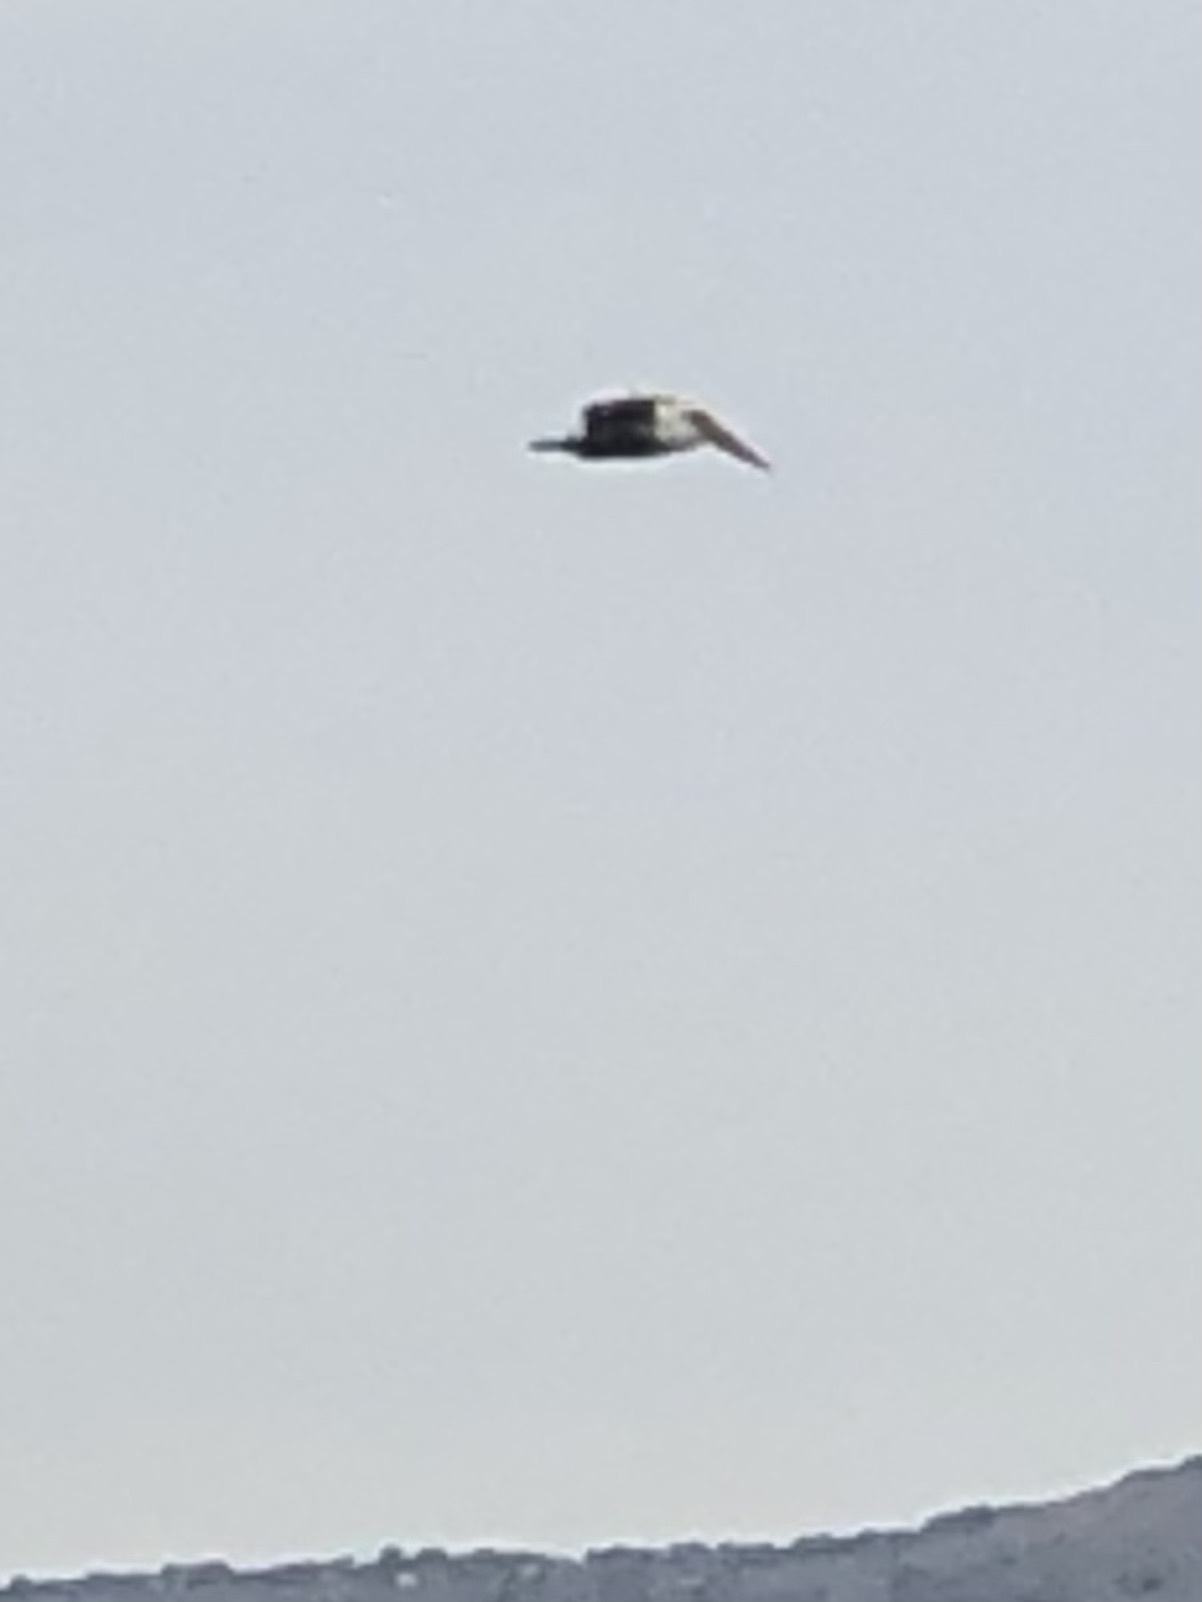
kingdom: Animalia
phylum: Chordata
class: Aves
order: Pelecaniformes
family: Pelecanidae
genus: Pelecanus
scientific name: Pelecanus occidentalis
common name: Brown pelican
